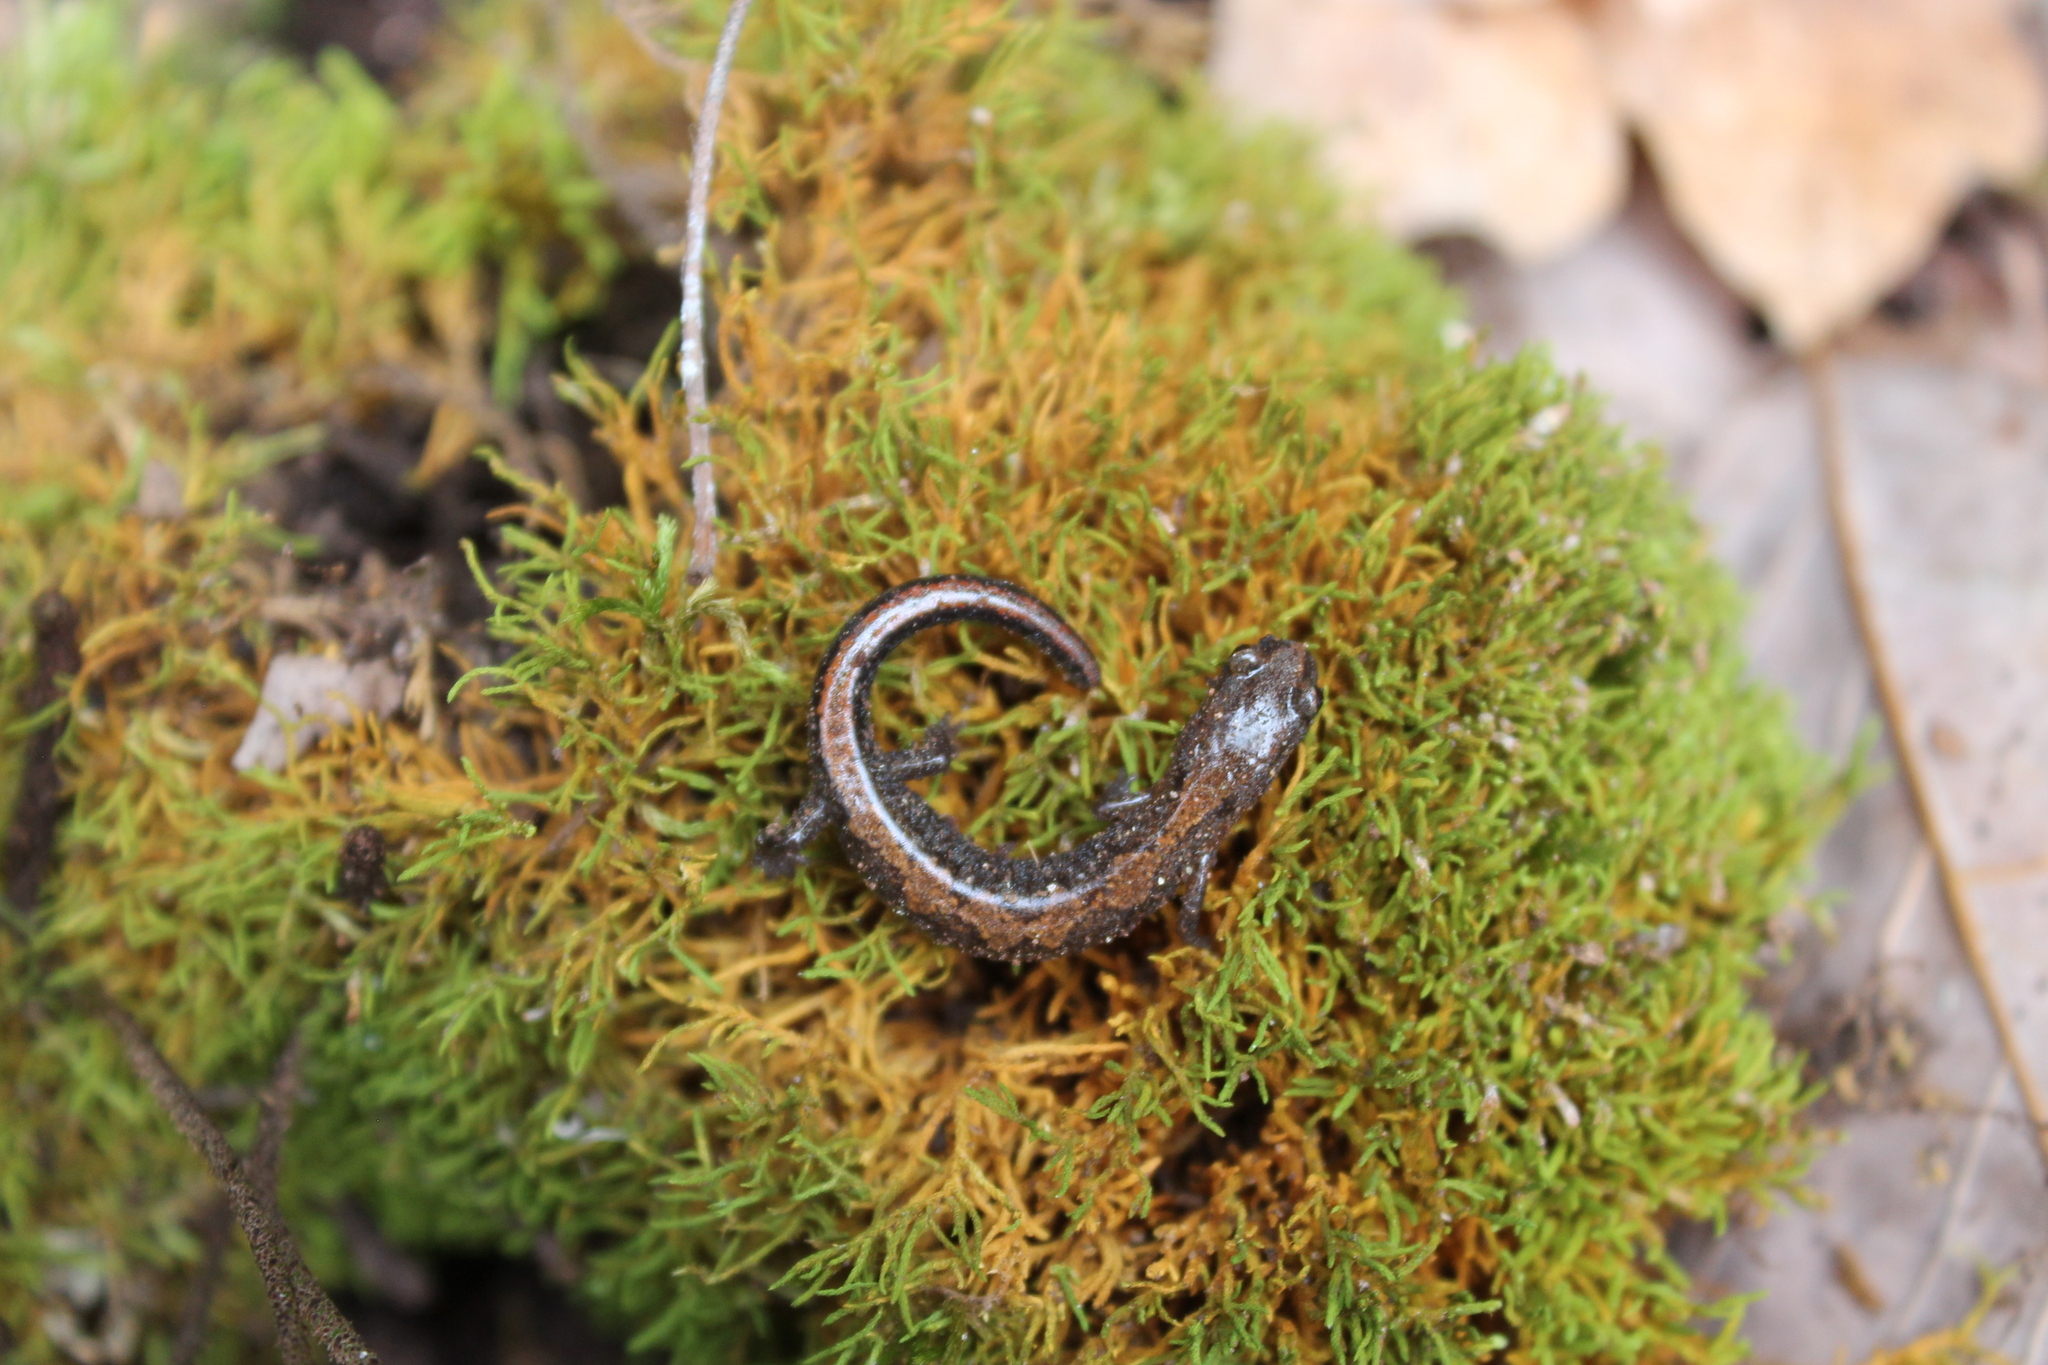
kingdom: Animalia
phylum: Chordata
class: Amphibia
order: Caudata
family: Plethodontidae
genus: Plethodon
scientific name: Plethodon dorsalis
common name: Northern zigzag salamander
